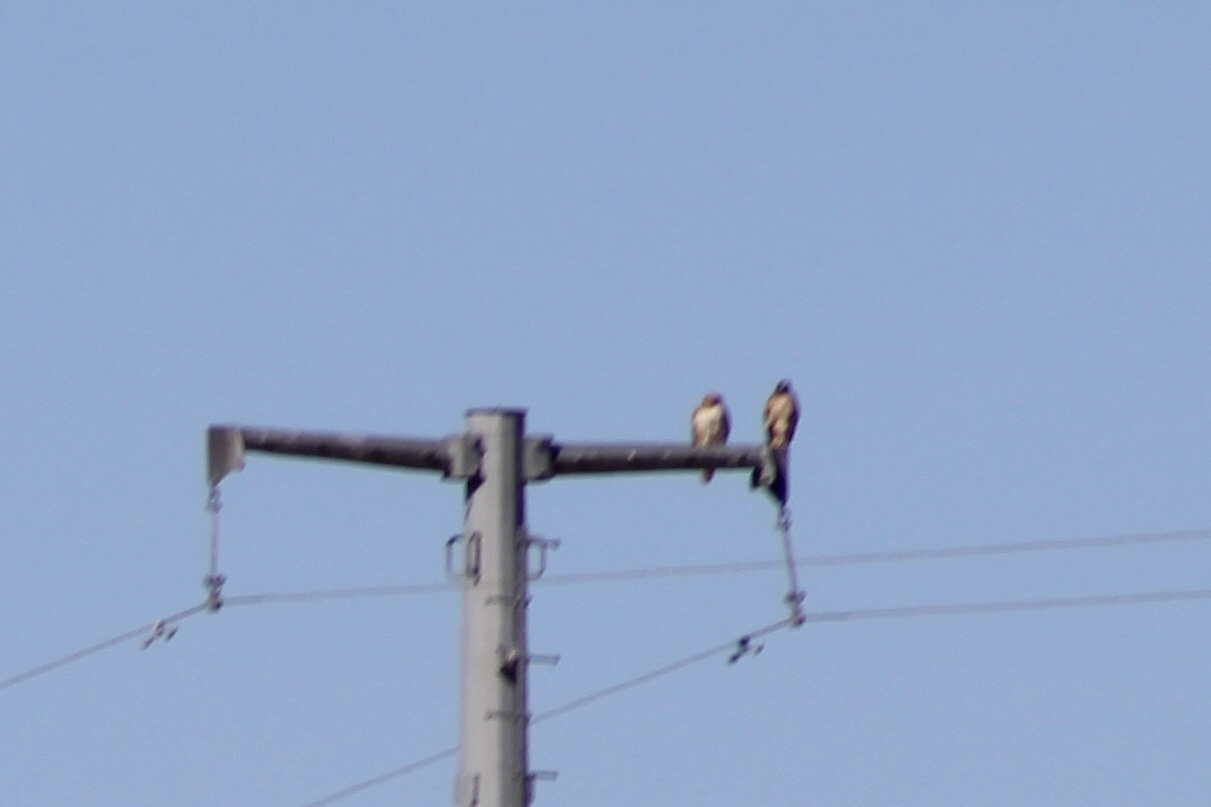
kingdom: Animalia
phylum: Chordata
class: Aves
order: Accipitriformes
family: Accipitridae
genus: Buteo
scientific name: Buteo jamaicensis
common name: Red-tailed hawk
